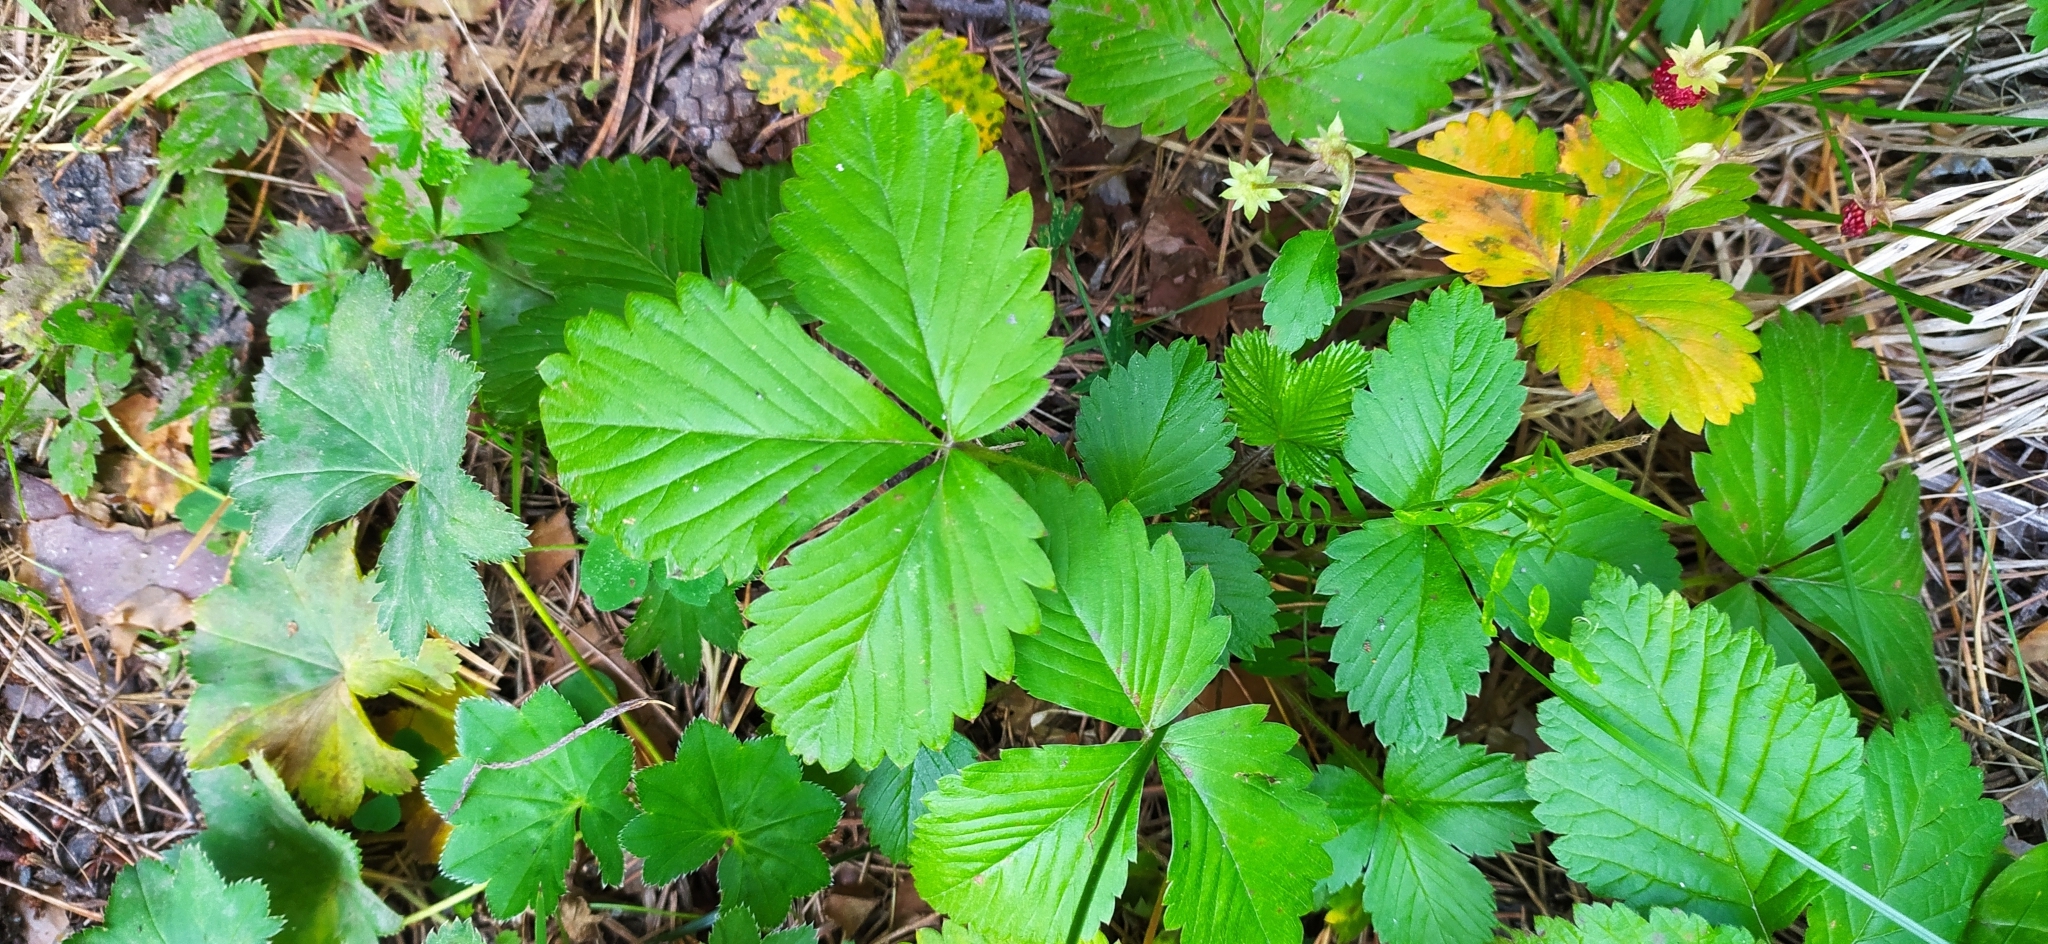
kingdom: Plantae
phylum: Tracheophyta
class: Magnoliopsida
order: Rosales
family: Rosaceae
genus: Fragaria
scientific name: Fragaria vesca
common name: Wild strawberry
